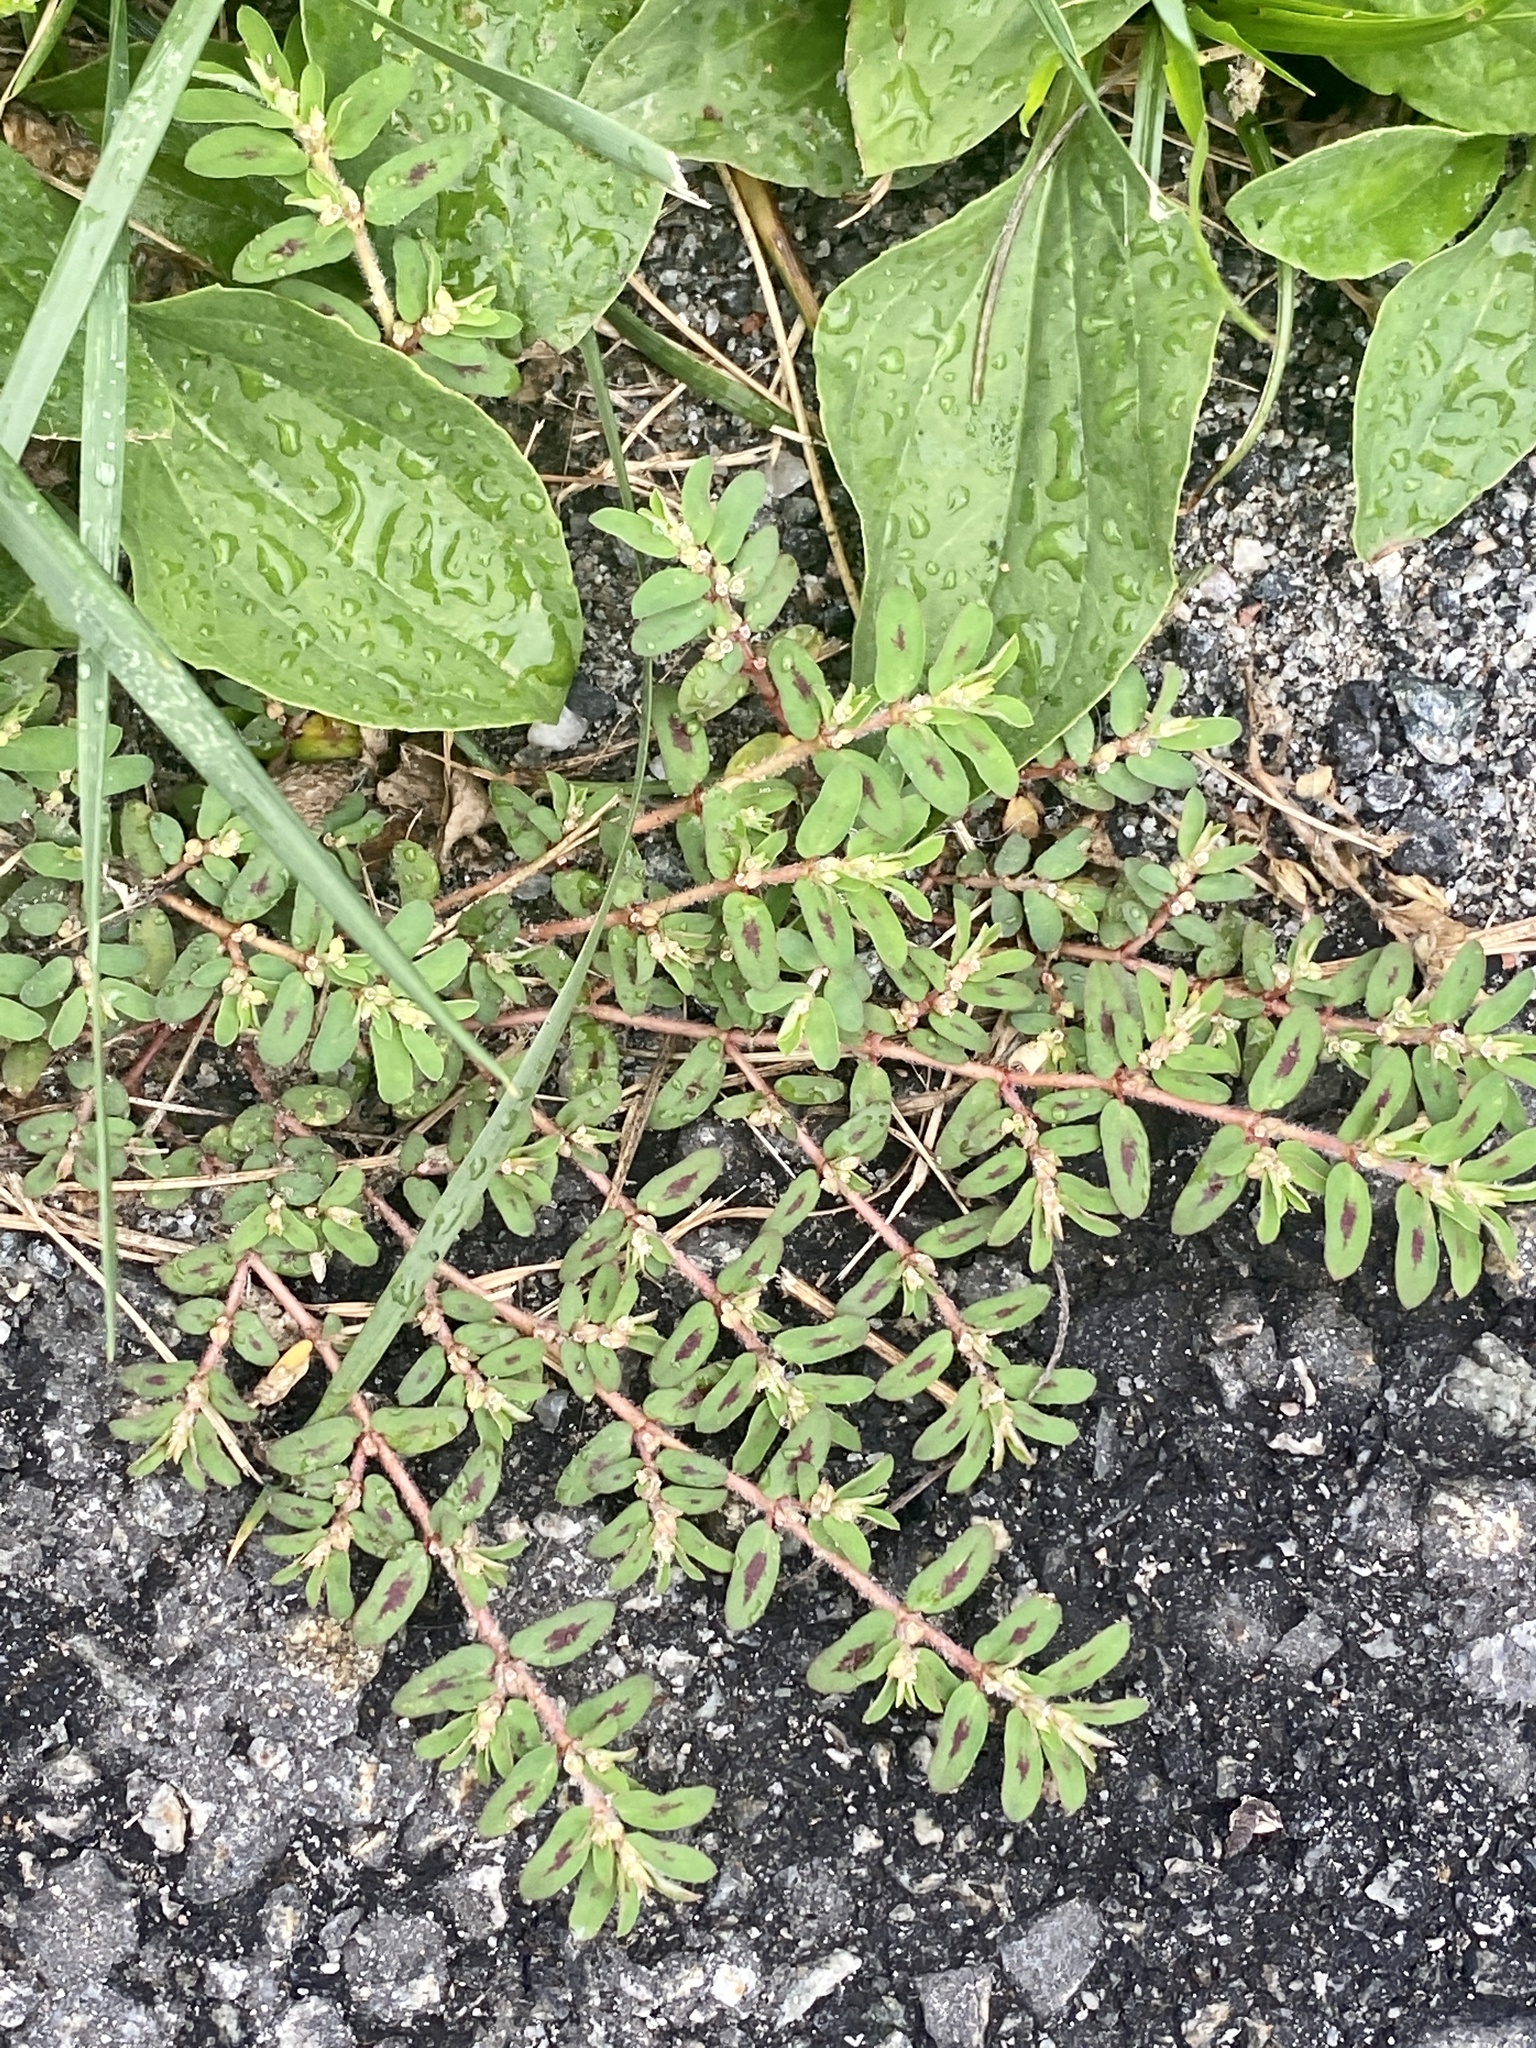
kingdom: Plantae
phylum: Tracheophyta
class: Magnoliopsida
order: Malpighiales
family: Euphorbiaceae
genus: Euphorbia
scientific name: Euphorbia maculata
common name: Spotted spurge
